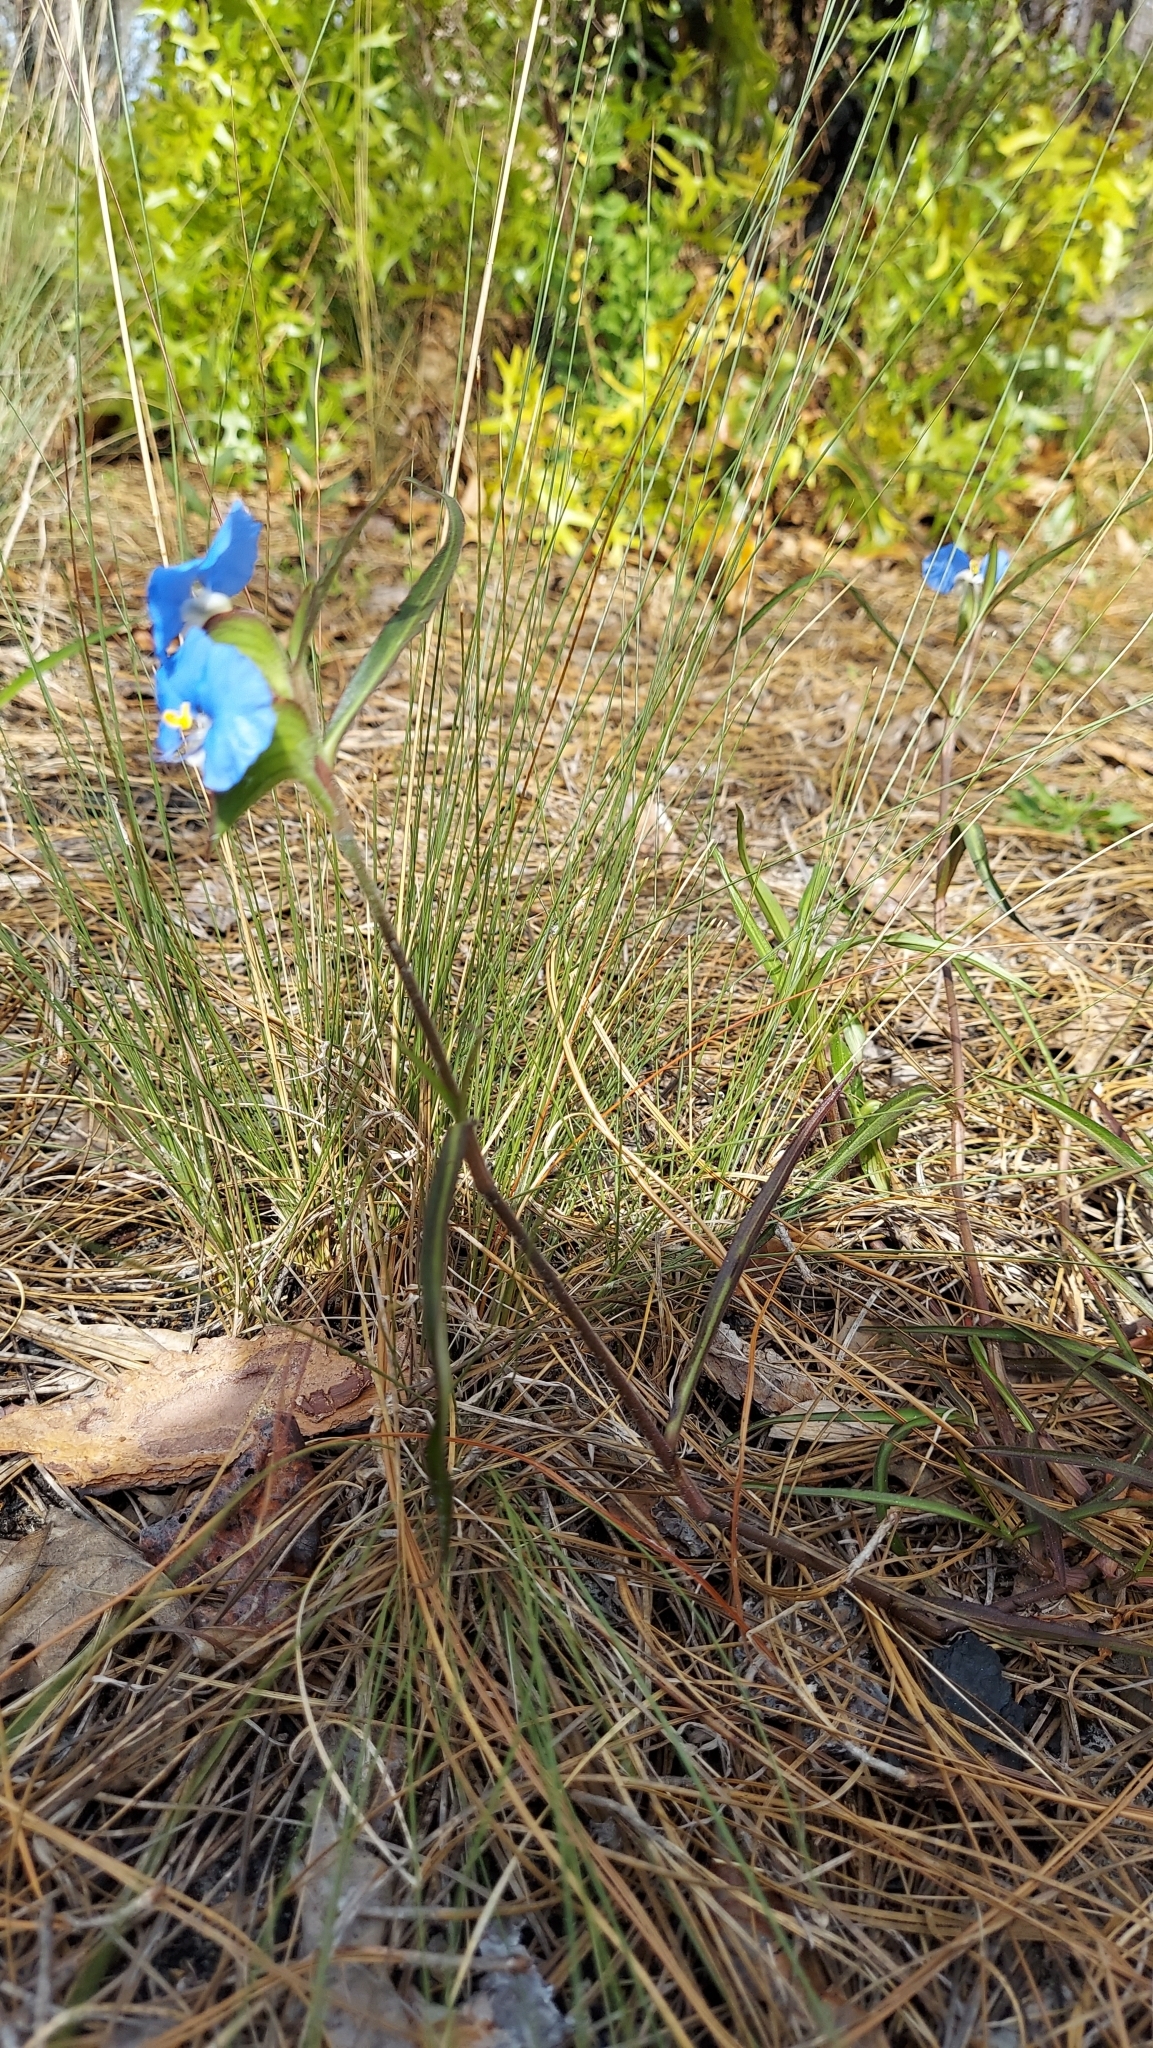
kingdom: Plantae
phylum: Tracheophyta
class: Liliopsida
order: Commelinales
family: Commelinaceae
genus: Commelina
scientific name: Commelina erecta
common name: Blousel blommetjie
